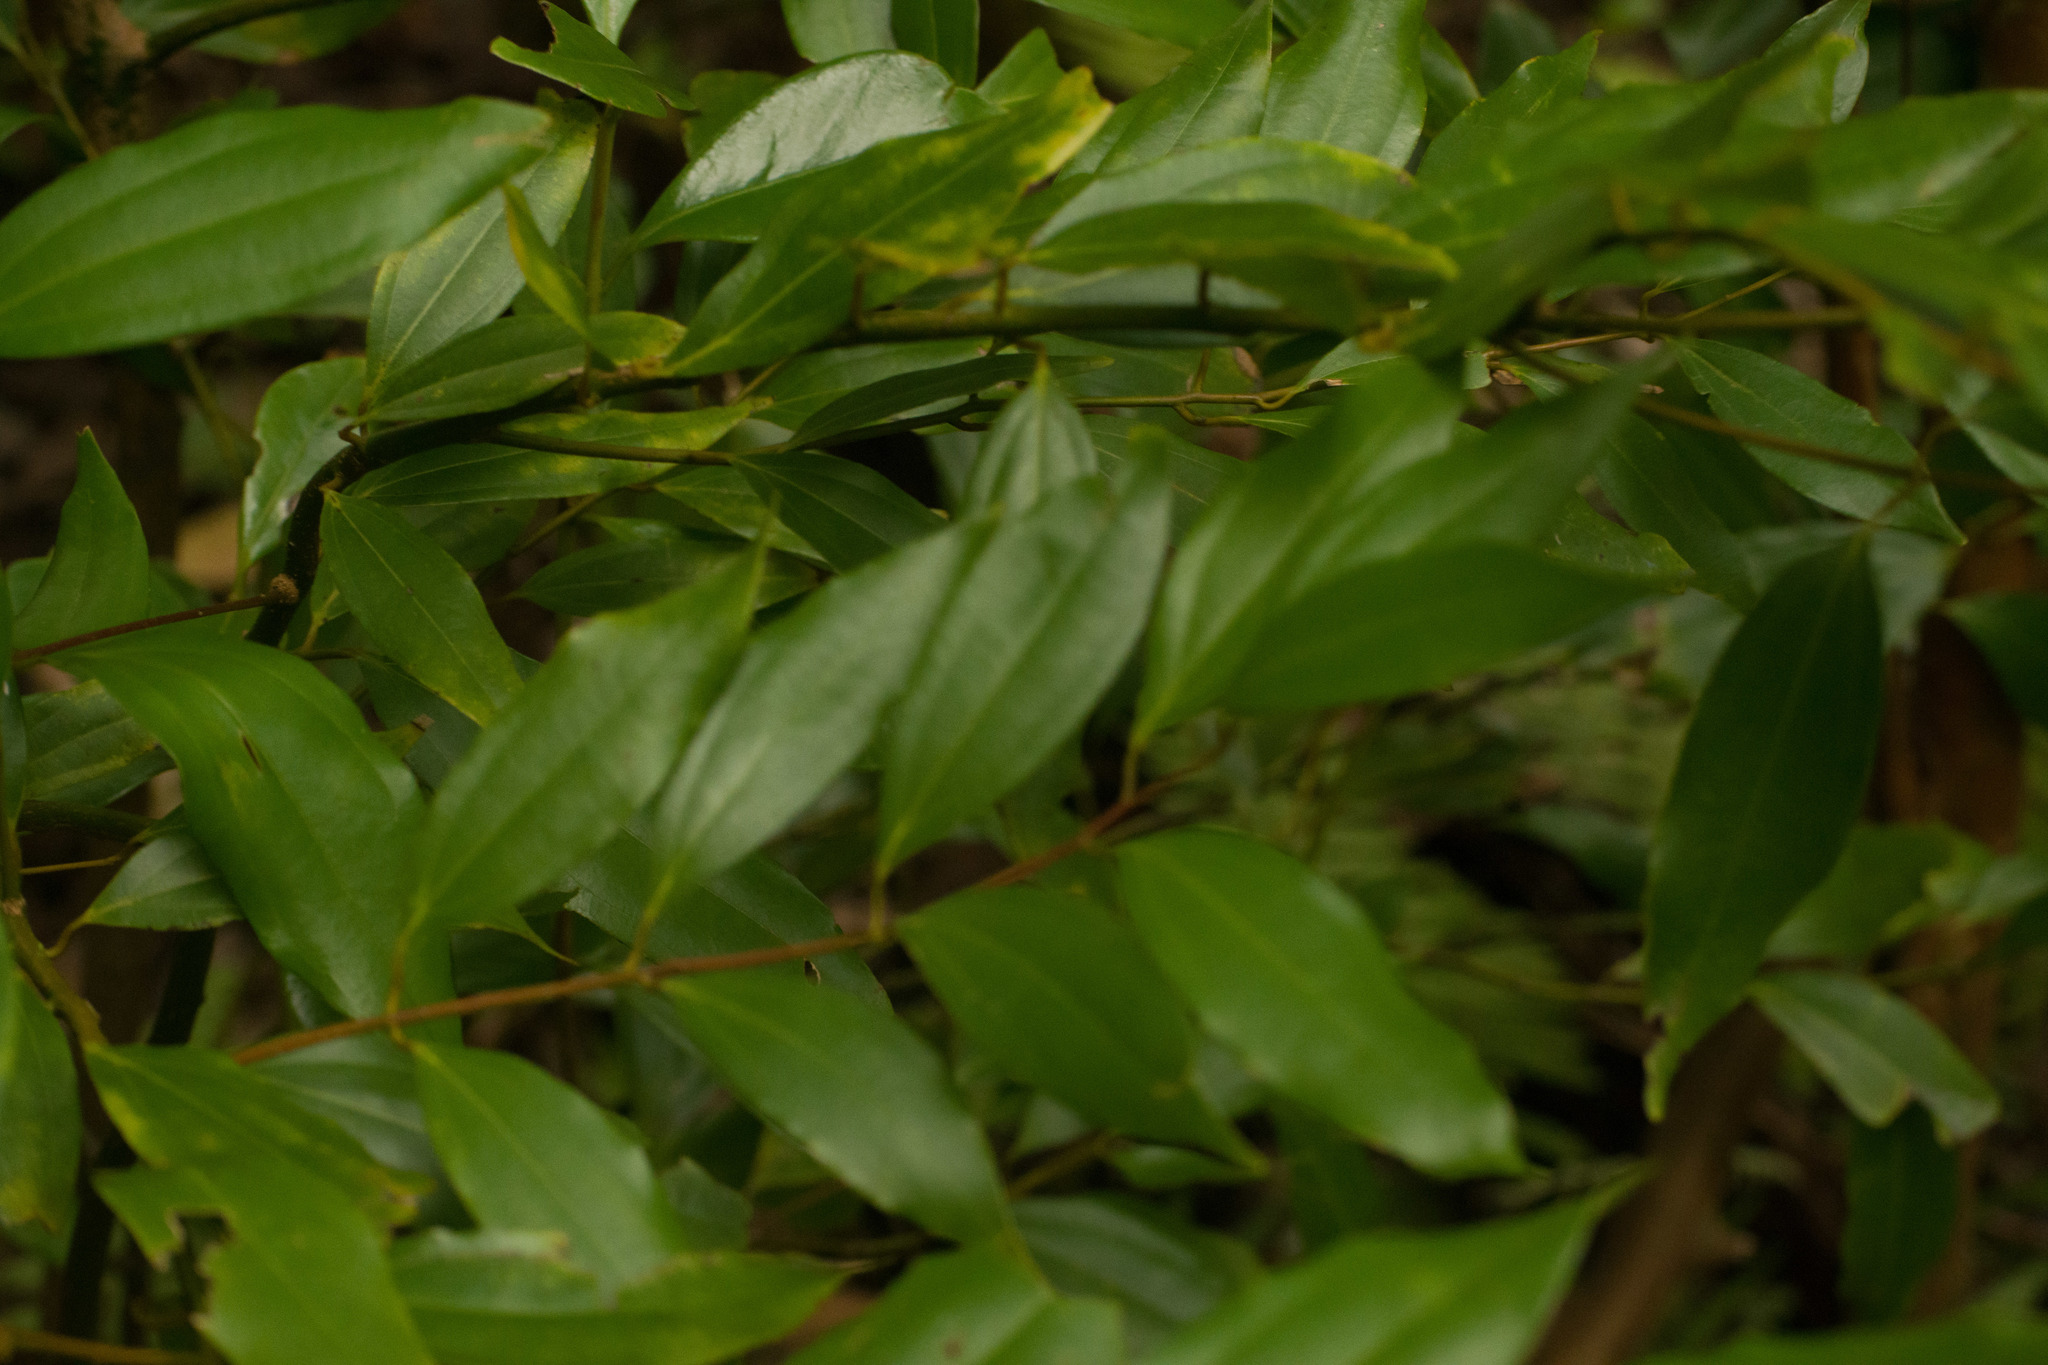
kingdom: Plantae
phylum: Tracheophyta
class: Magnoliopsida
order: Laurales
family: Lauraceae
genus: Cinnamomum
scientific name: Cinnamomum burmanni
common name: Padang cassia
